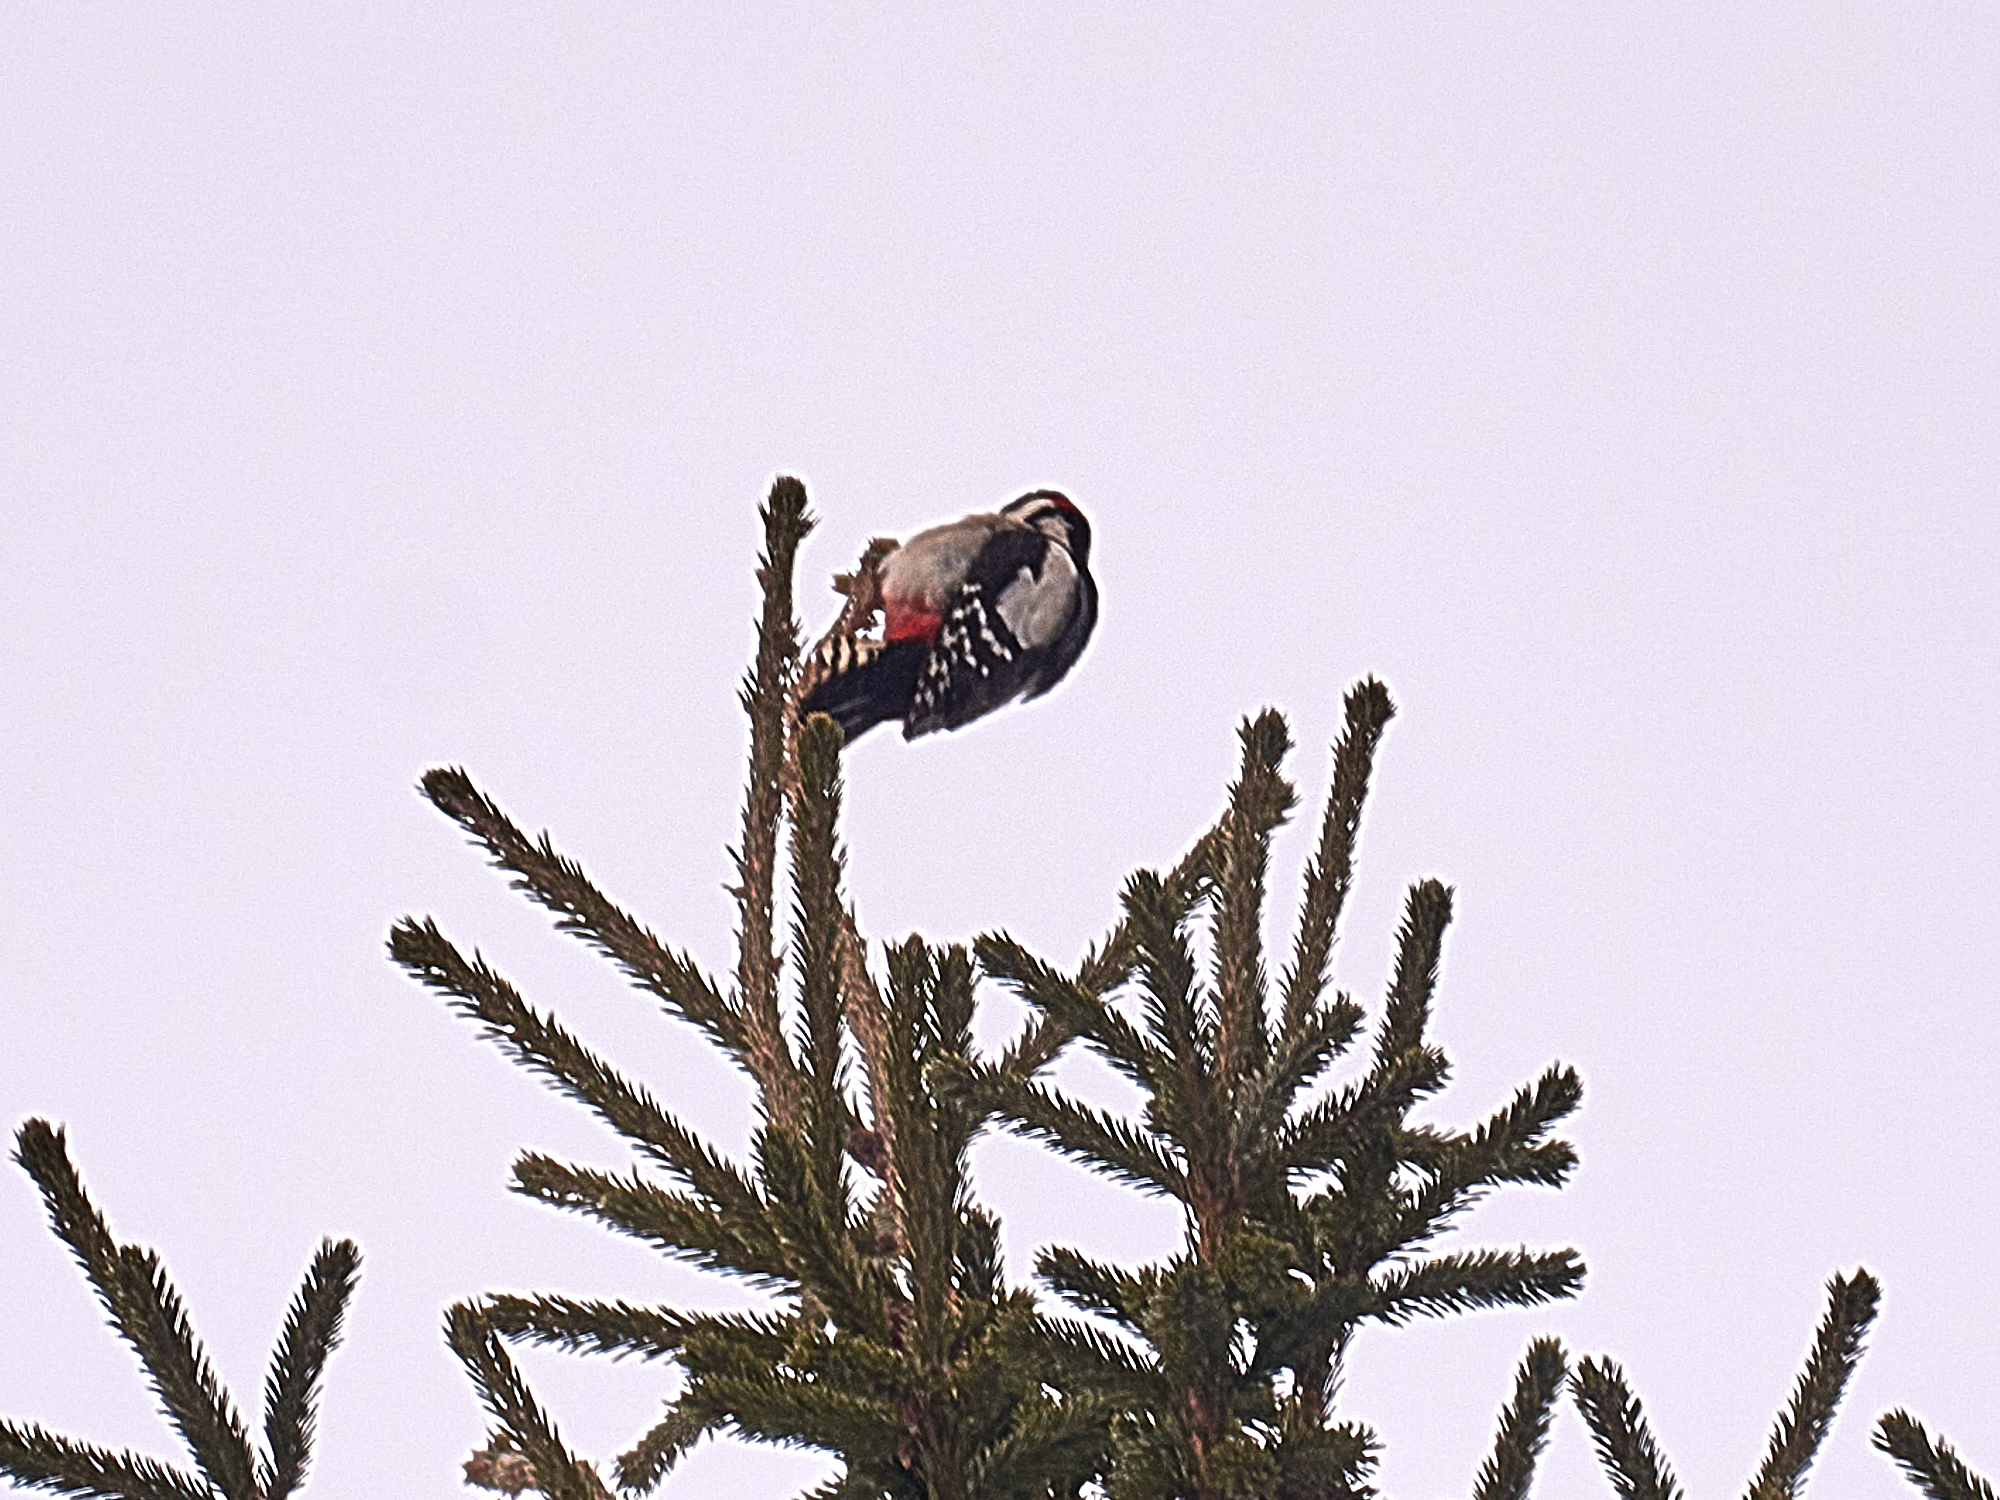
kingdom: Animalia
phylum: Chordata
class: Aves
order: Piciformes
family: Picidae
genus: Dendrocopos
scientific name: Dendrocopos major
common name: Great spotted woodpecker
